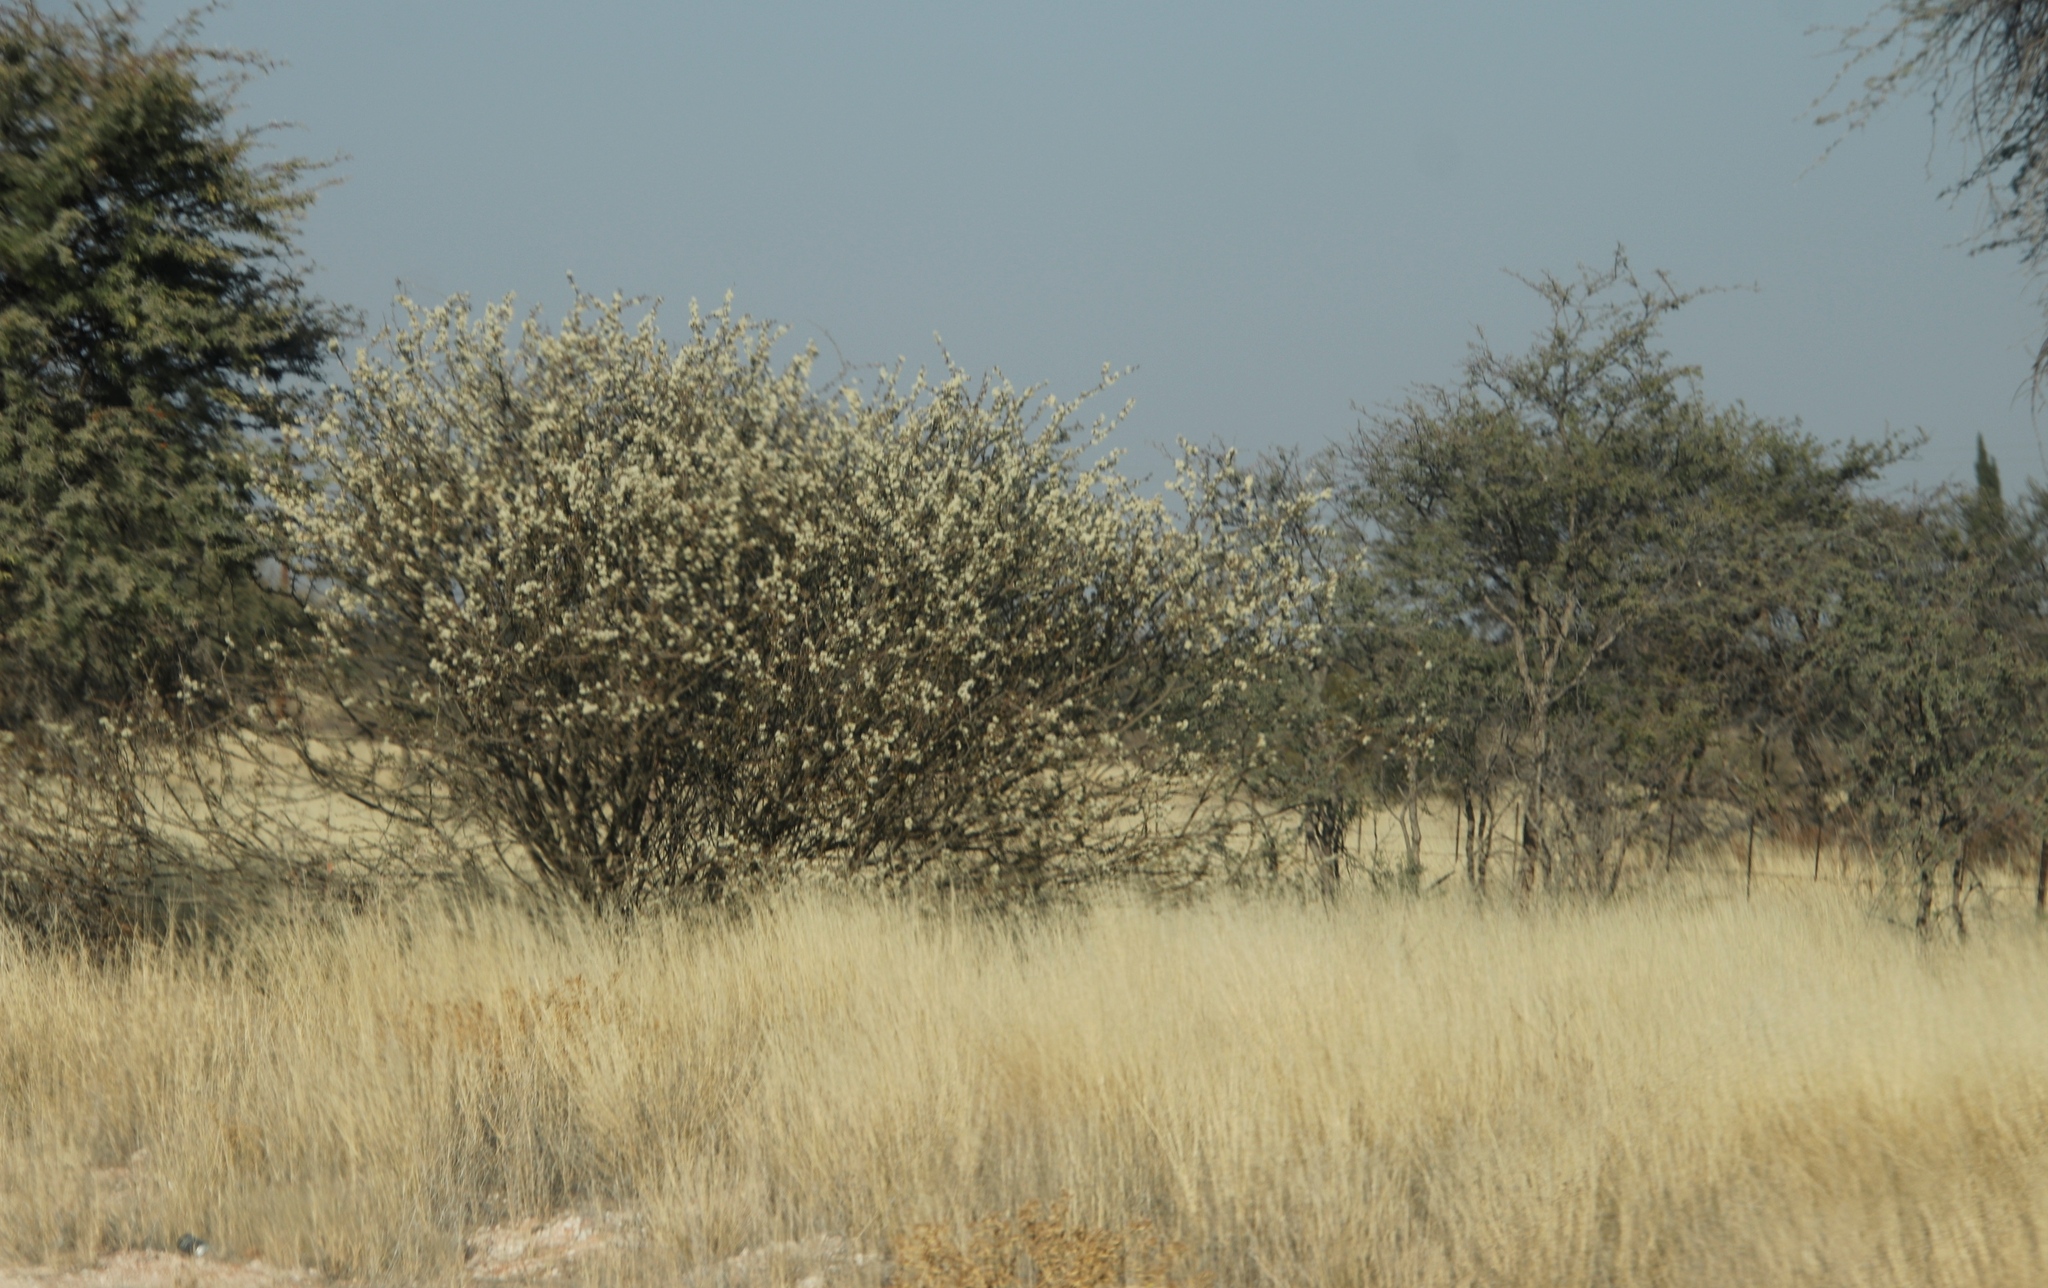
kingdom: Plantae
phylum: Tracheophyta
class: Magnoliopsida
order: Fabales
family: Fabaceae
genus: Senegalia
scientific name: Senegalia mellifera
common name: Hookthorn
